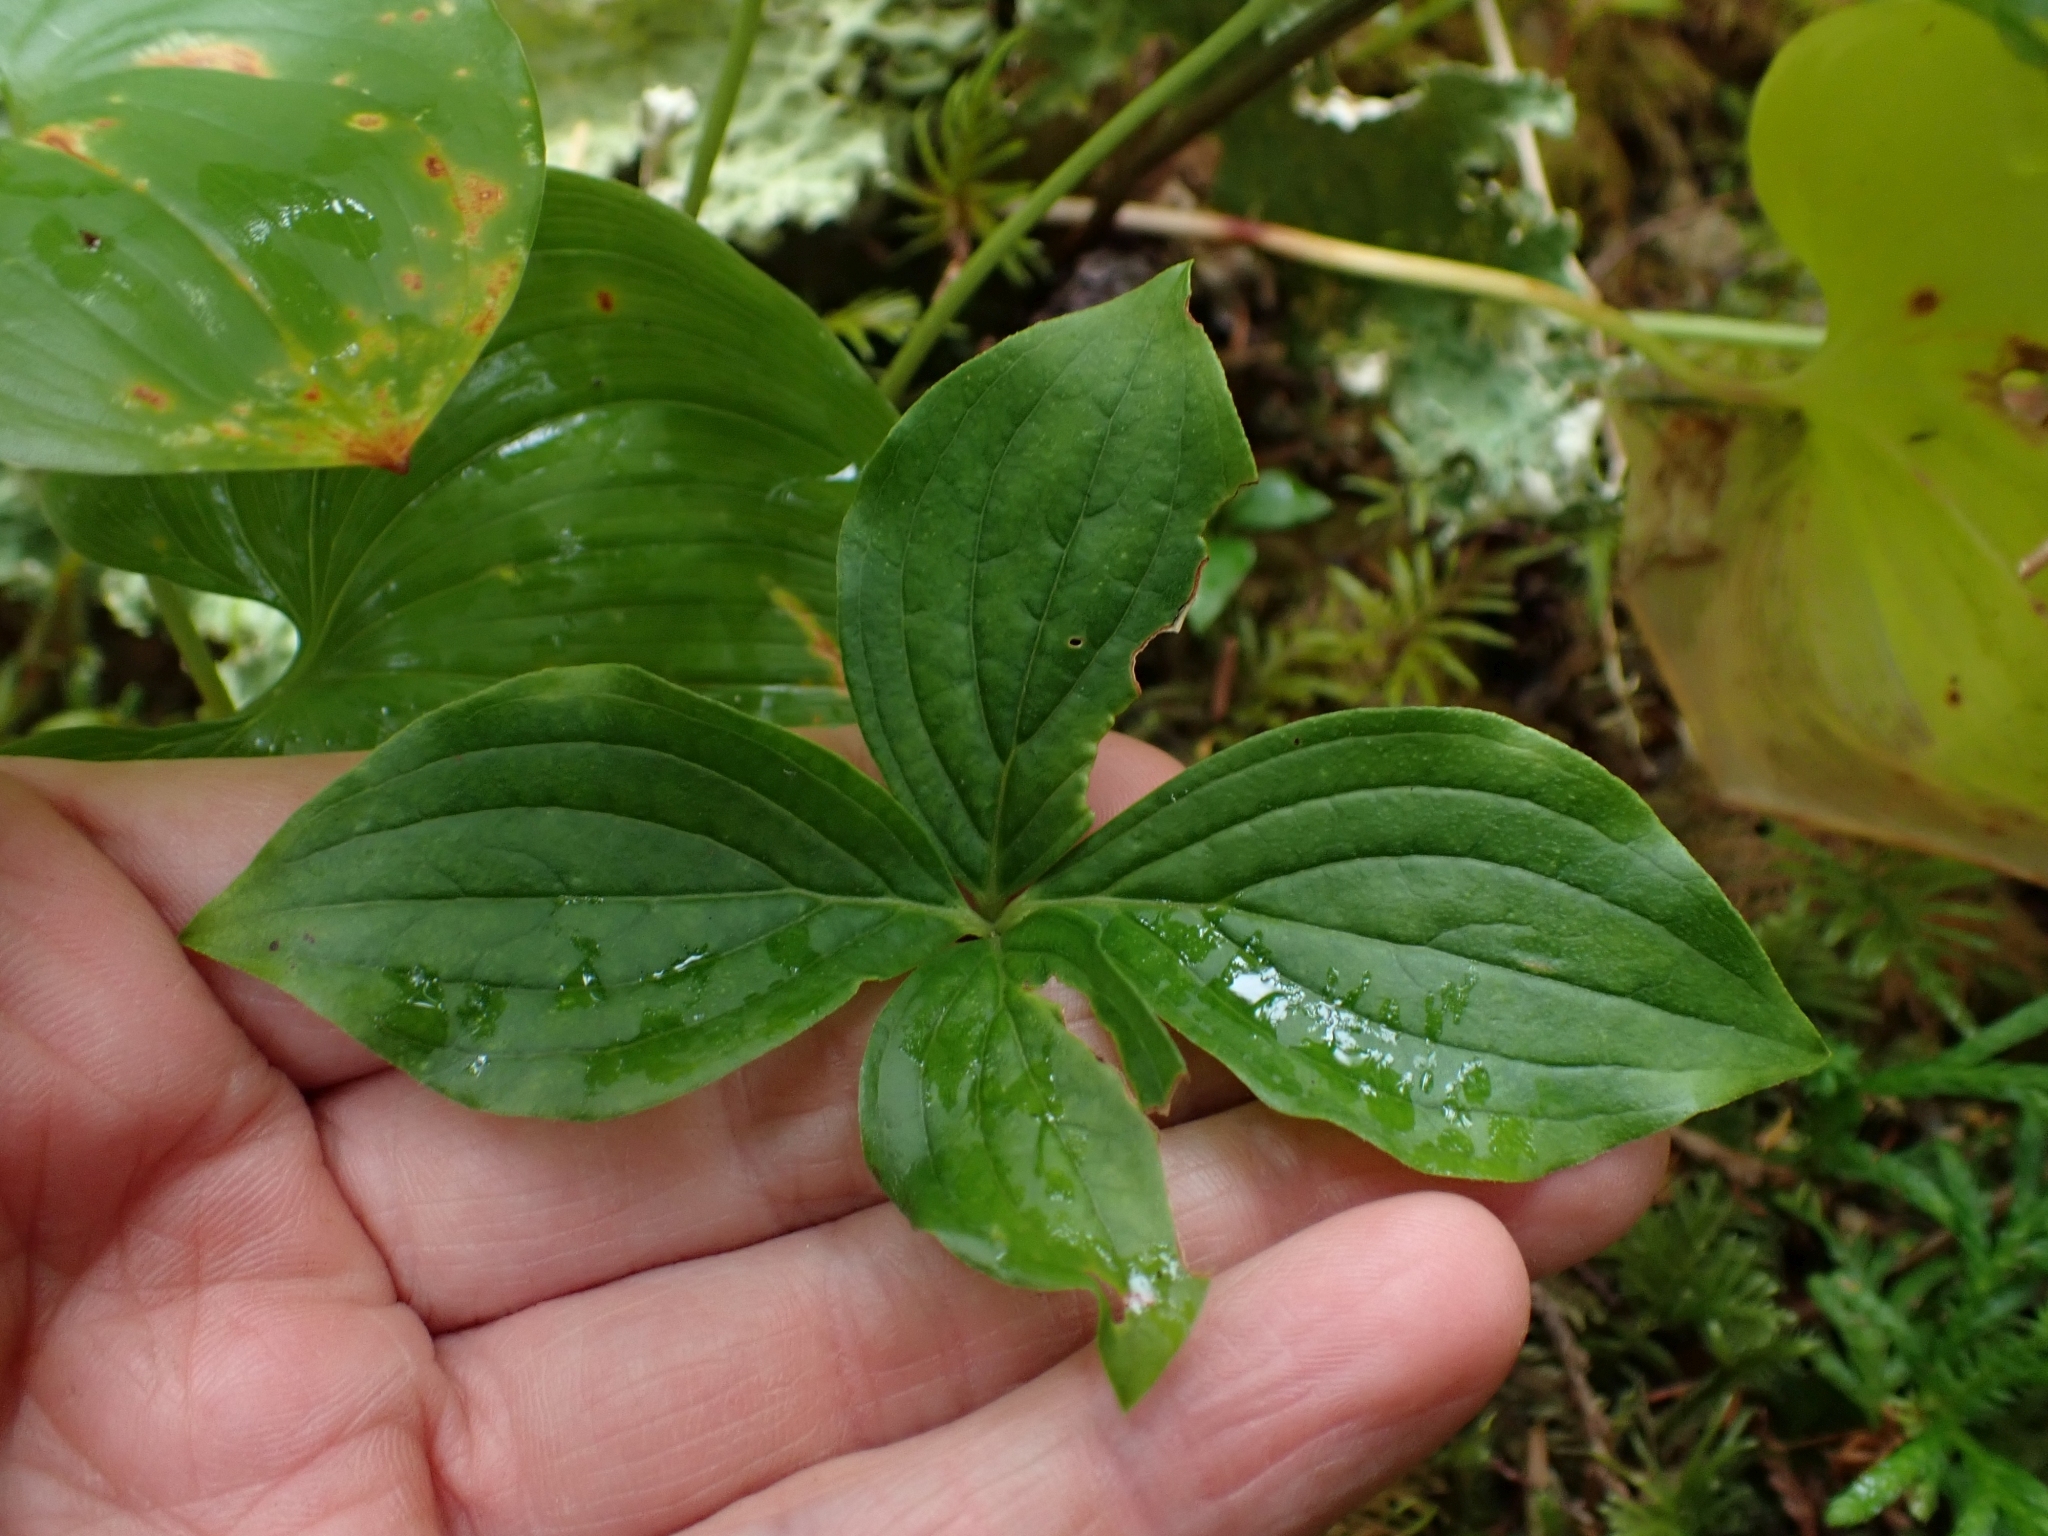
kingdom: Plantae
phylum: Tracheophyta
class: Magnoliopsida
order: Cornales
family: Cornaceae
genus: Cornus
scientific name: Cornus unalaschkensis
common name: Alaska bunchberry
